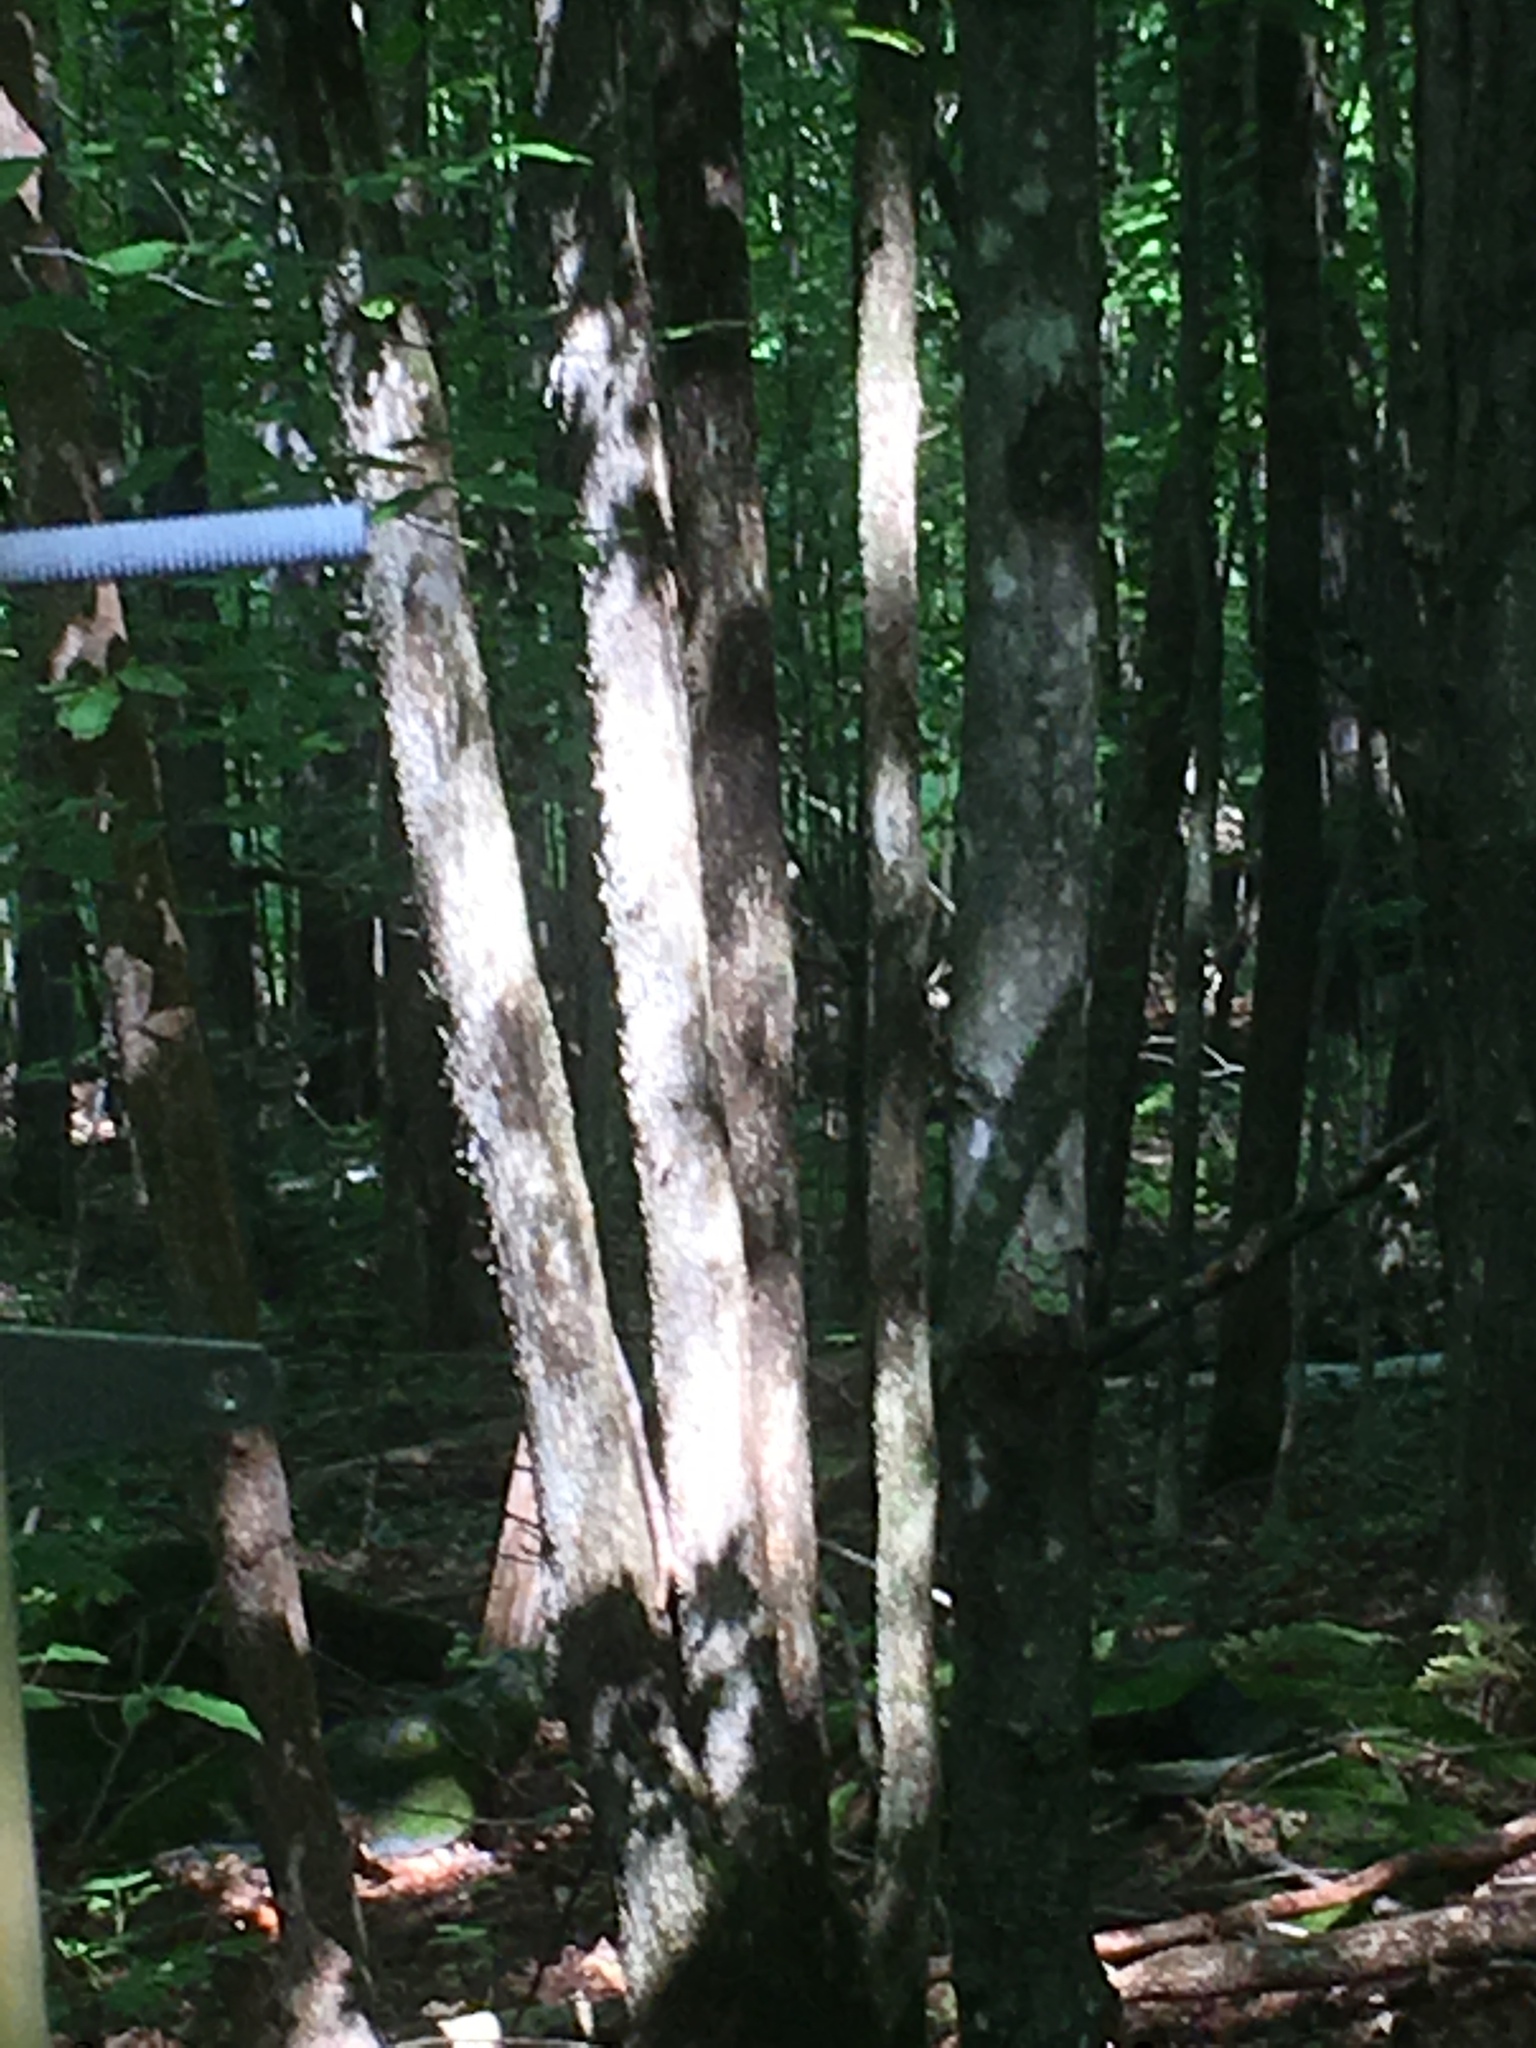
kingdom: Plantae
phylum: Tracheophyta
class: Magnoliopsida
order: Fagales
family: Betulaceae
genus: Ostrya
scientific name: Ostrya virginiana
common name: Ironwood
